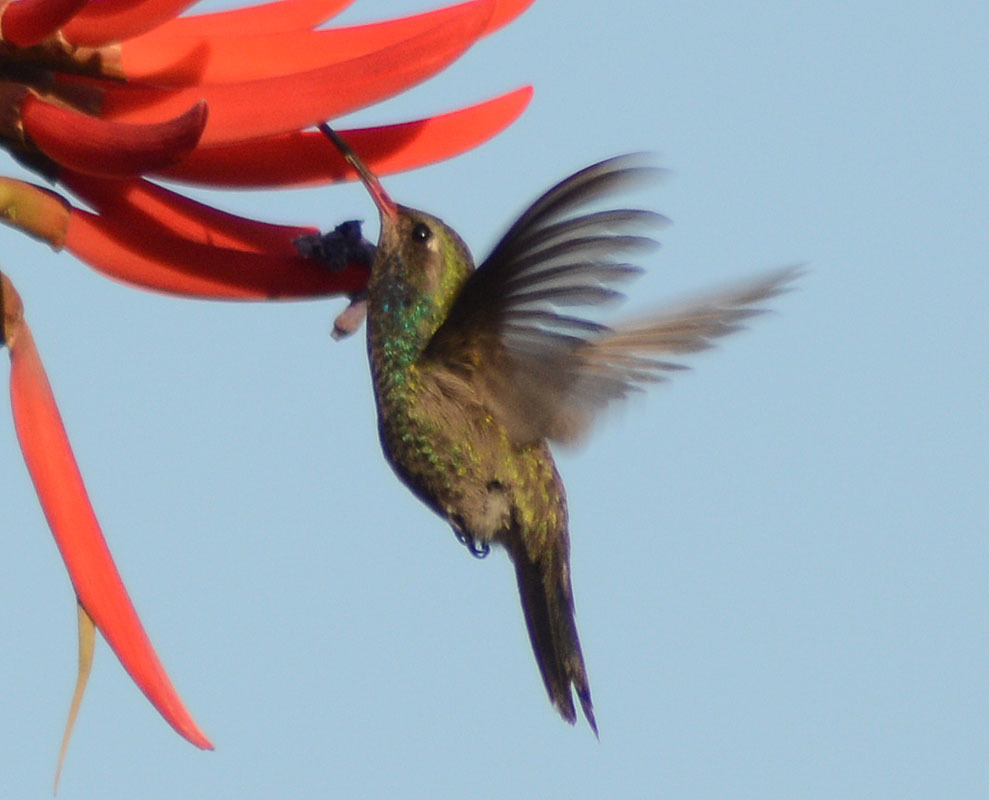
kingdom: Animalia
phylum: Chordata
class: Aves
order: Apodiformes
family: Trochilidae
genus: Cynanthus
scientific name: Cynanthus latirostris
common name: Broad-billed hummingbird
